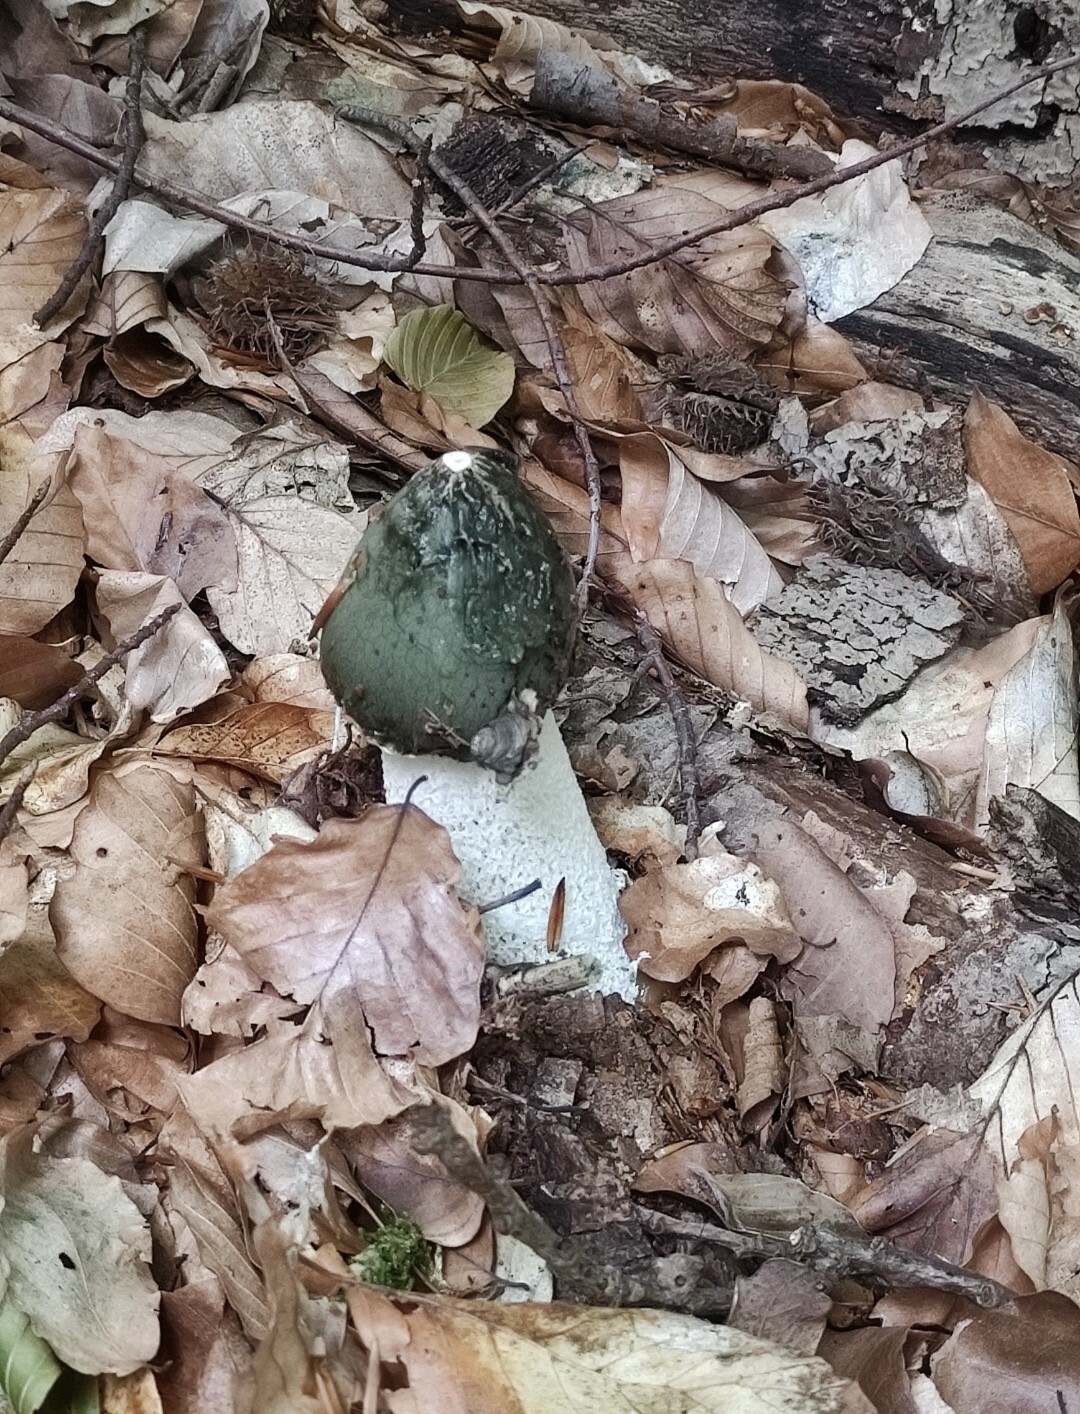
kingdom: Fungi
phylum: Basidiomycota
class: Agaricomycetes
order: Phallales
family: Phallaceae
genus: Phallus
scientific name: Phallus impudicus
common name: Common stinkhorn
